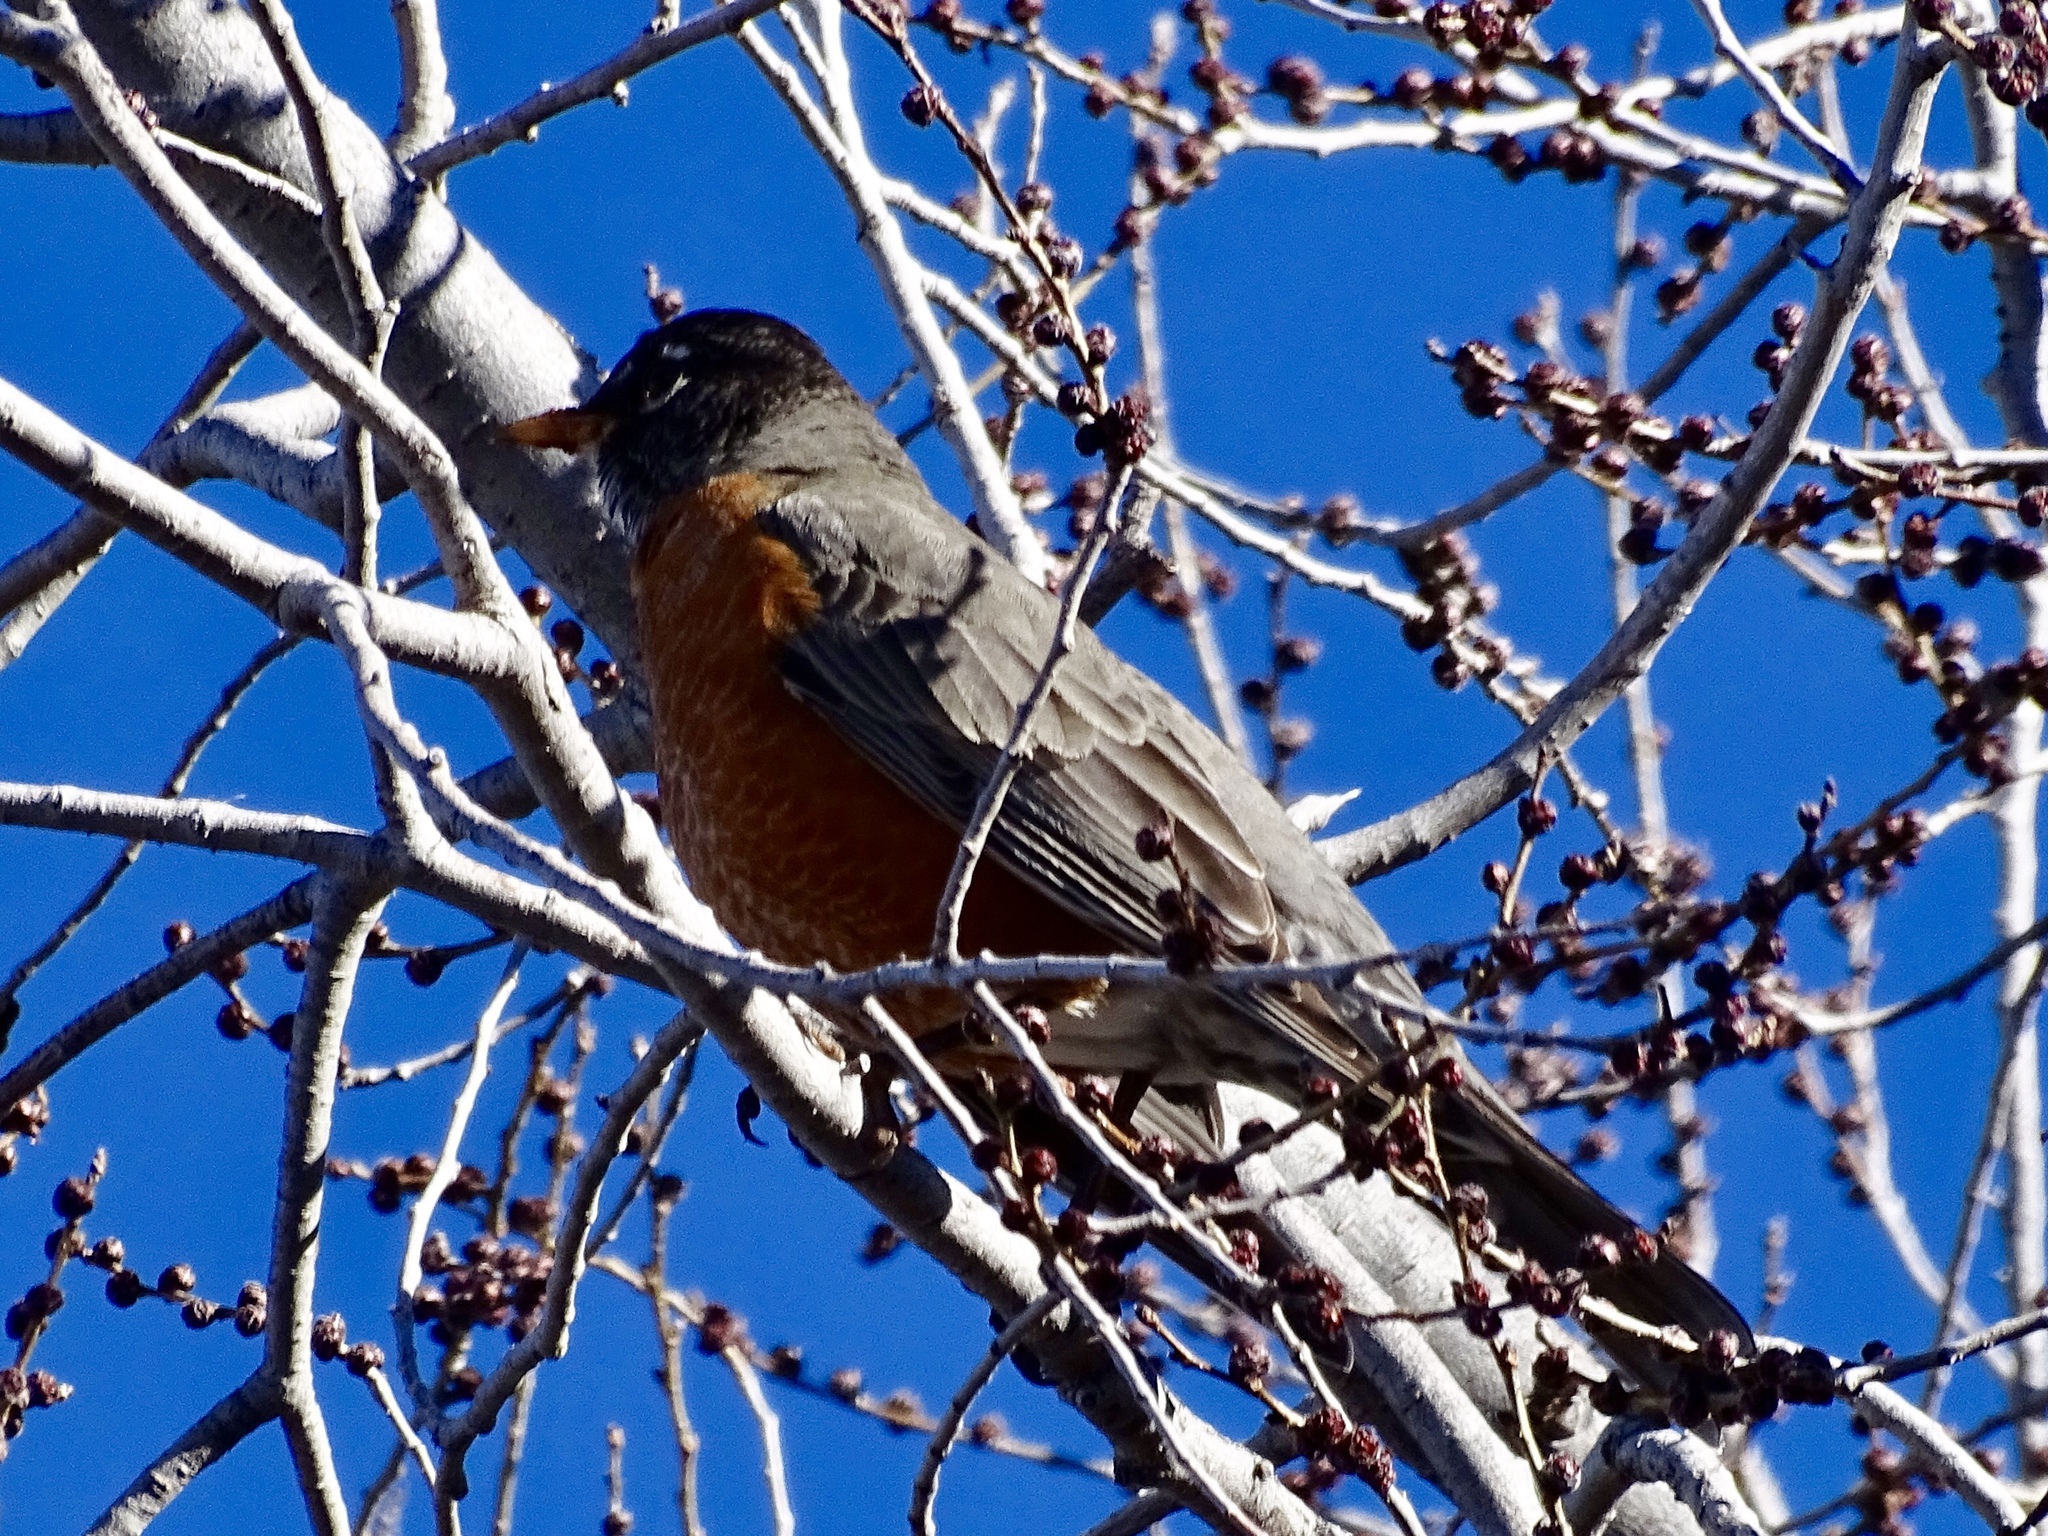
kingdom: Animalia
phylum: Chordata
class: Aves
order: Passeriformes
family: Turdidae
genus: Turdus
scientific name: Turdus migratorius
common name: American robin
